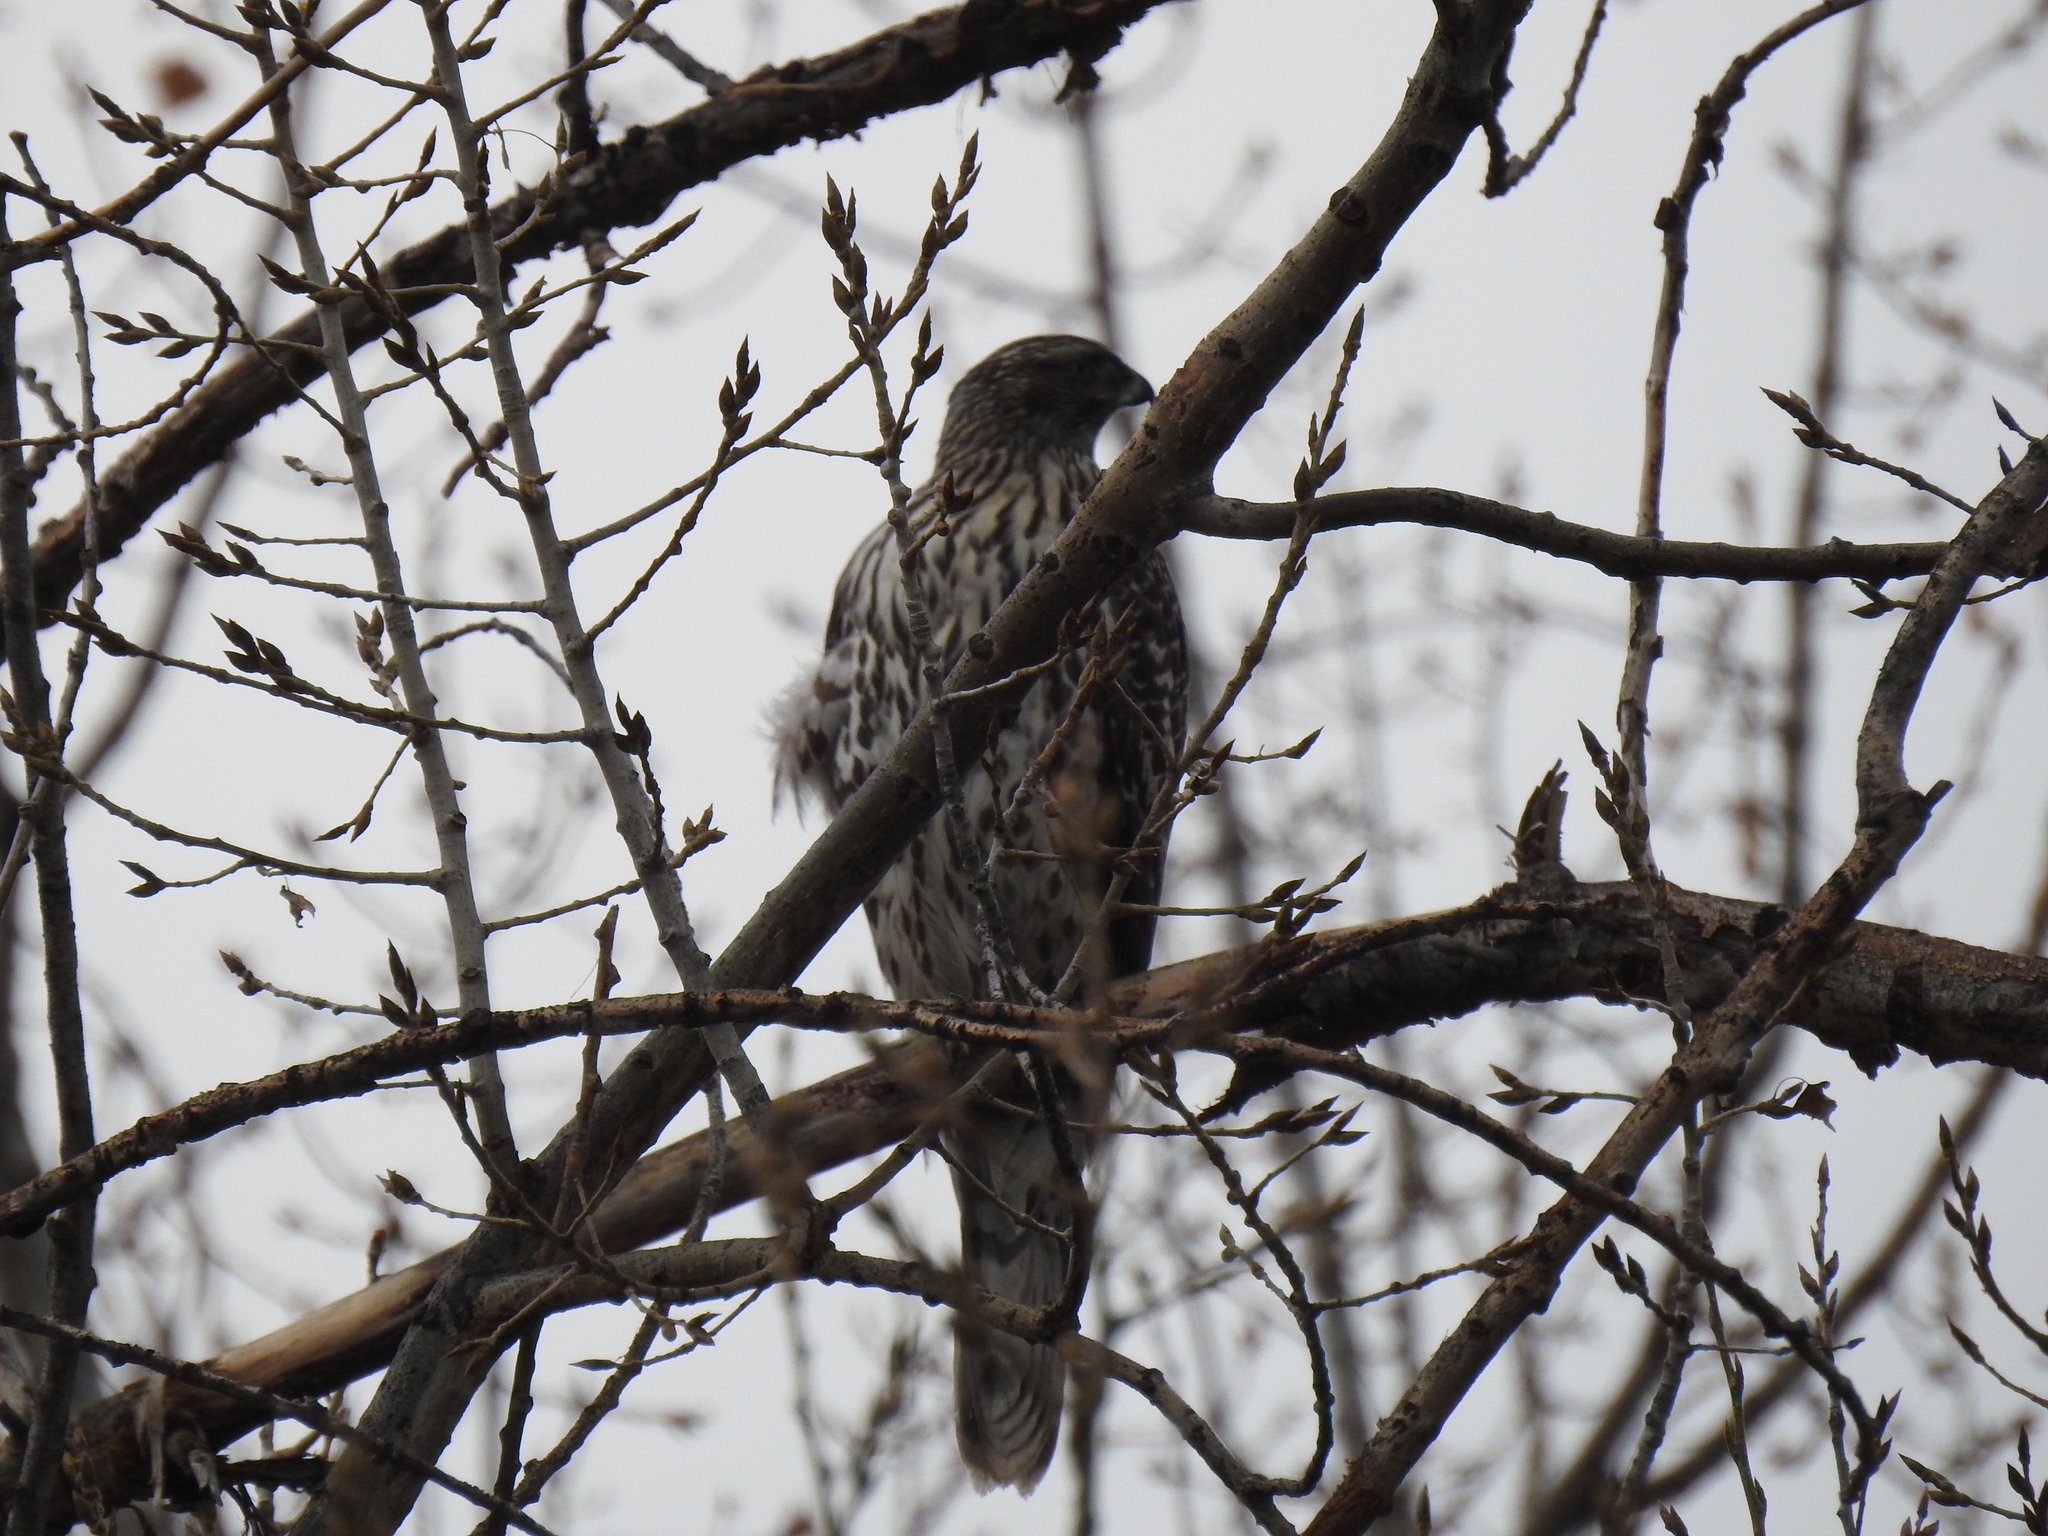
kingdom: Animalia
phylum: Chordata
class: Aves
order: Accipitriformes
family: Accipitridae
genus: Accipiter
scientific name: Accipiter gentilis
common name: Northern goshawk
